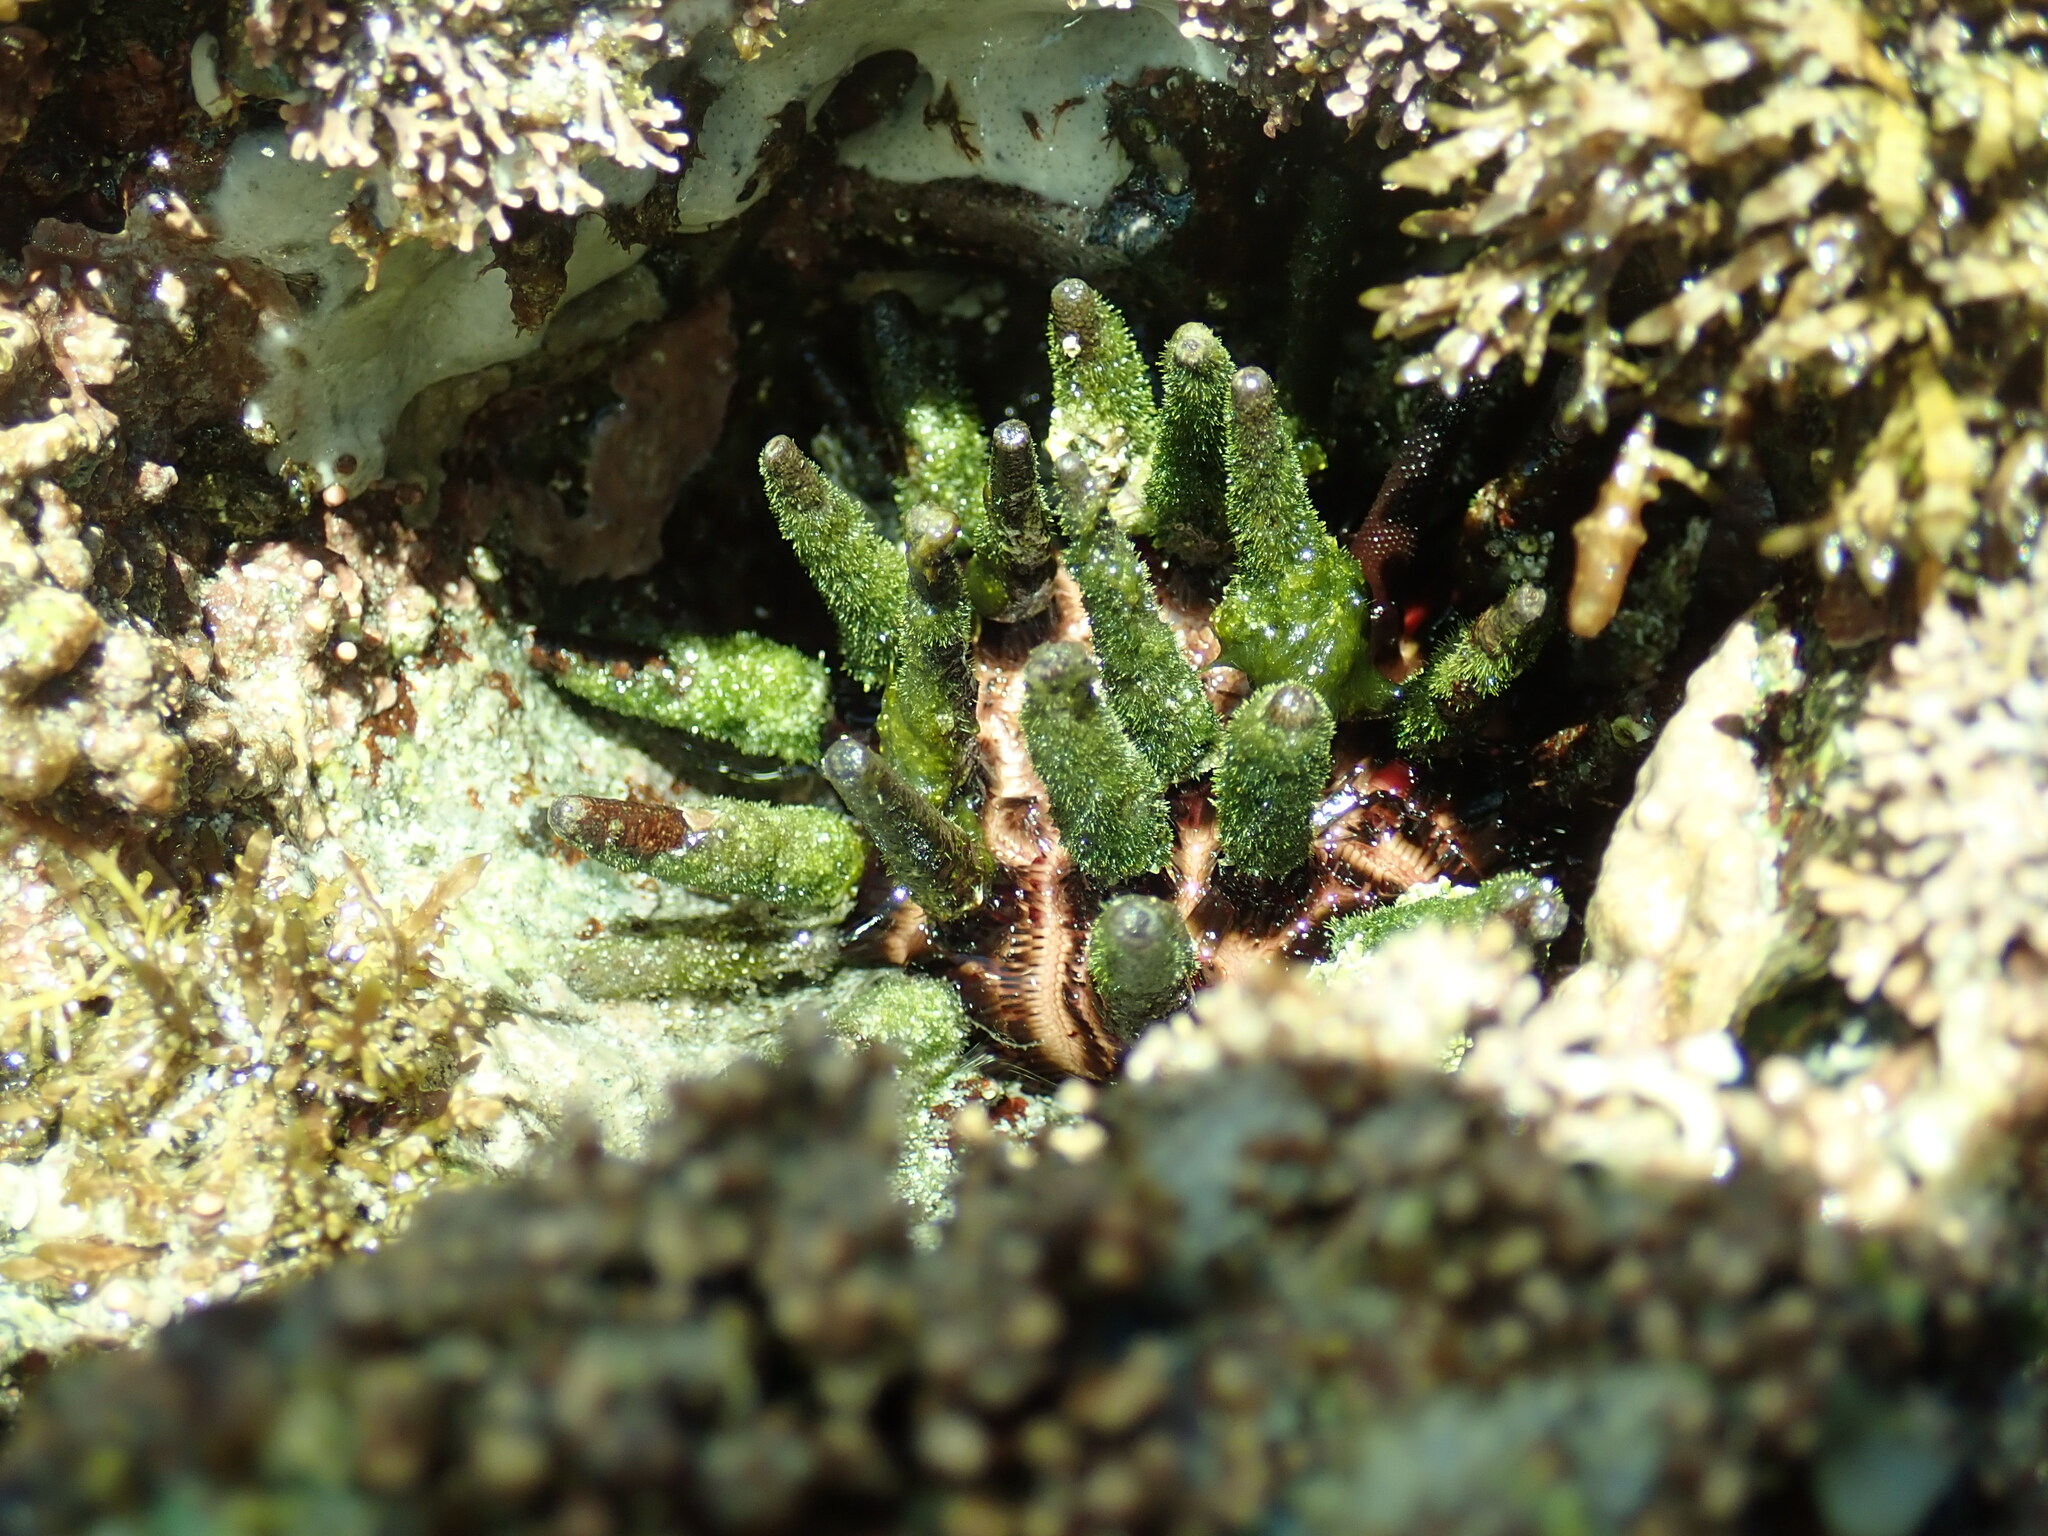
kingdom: Animalia
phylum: Echinodermata
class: Echinoidea
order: Cidaroida
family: Cidaridae
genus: Eucidaris
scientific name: Eucidaris thouarsii
